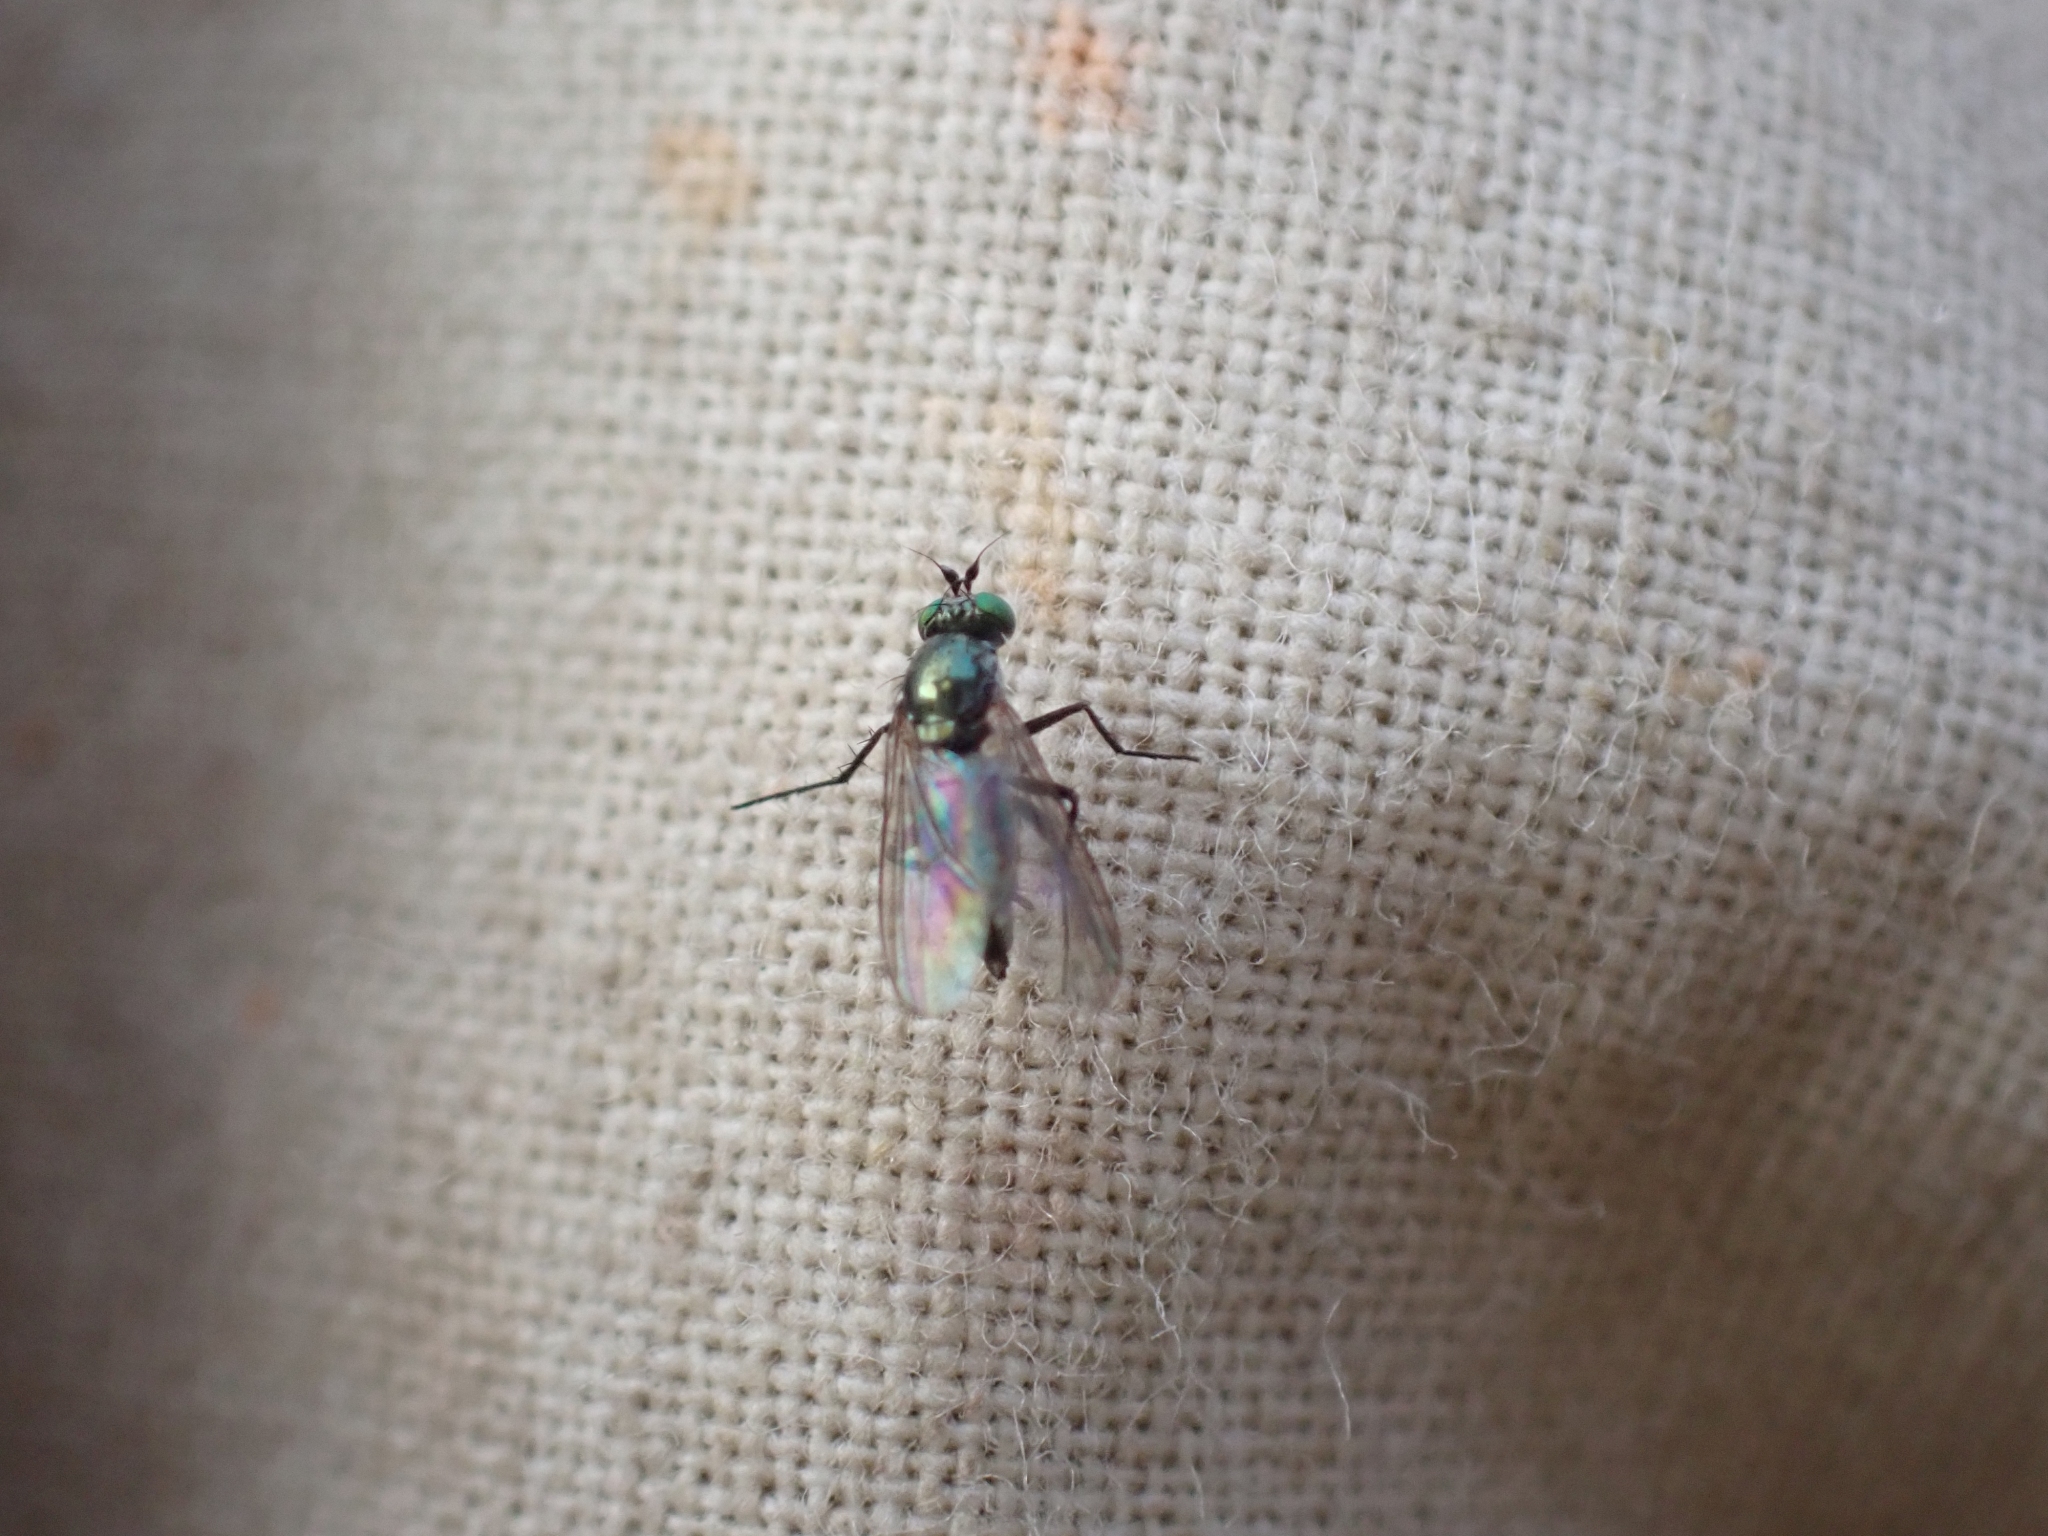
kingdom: Animalia
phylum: Arthropoda
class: Insecta
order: Diptera
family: Dolichopodidae
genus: Hercostomus
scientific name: Hercostomus unicolor
